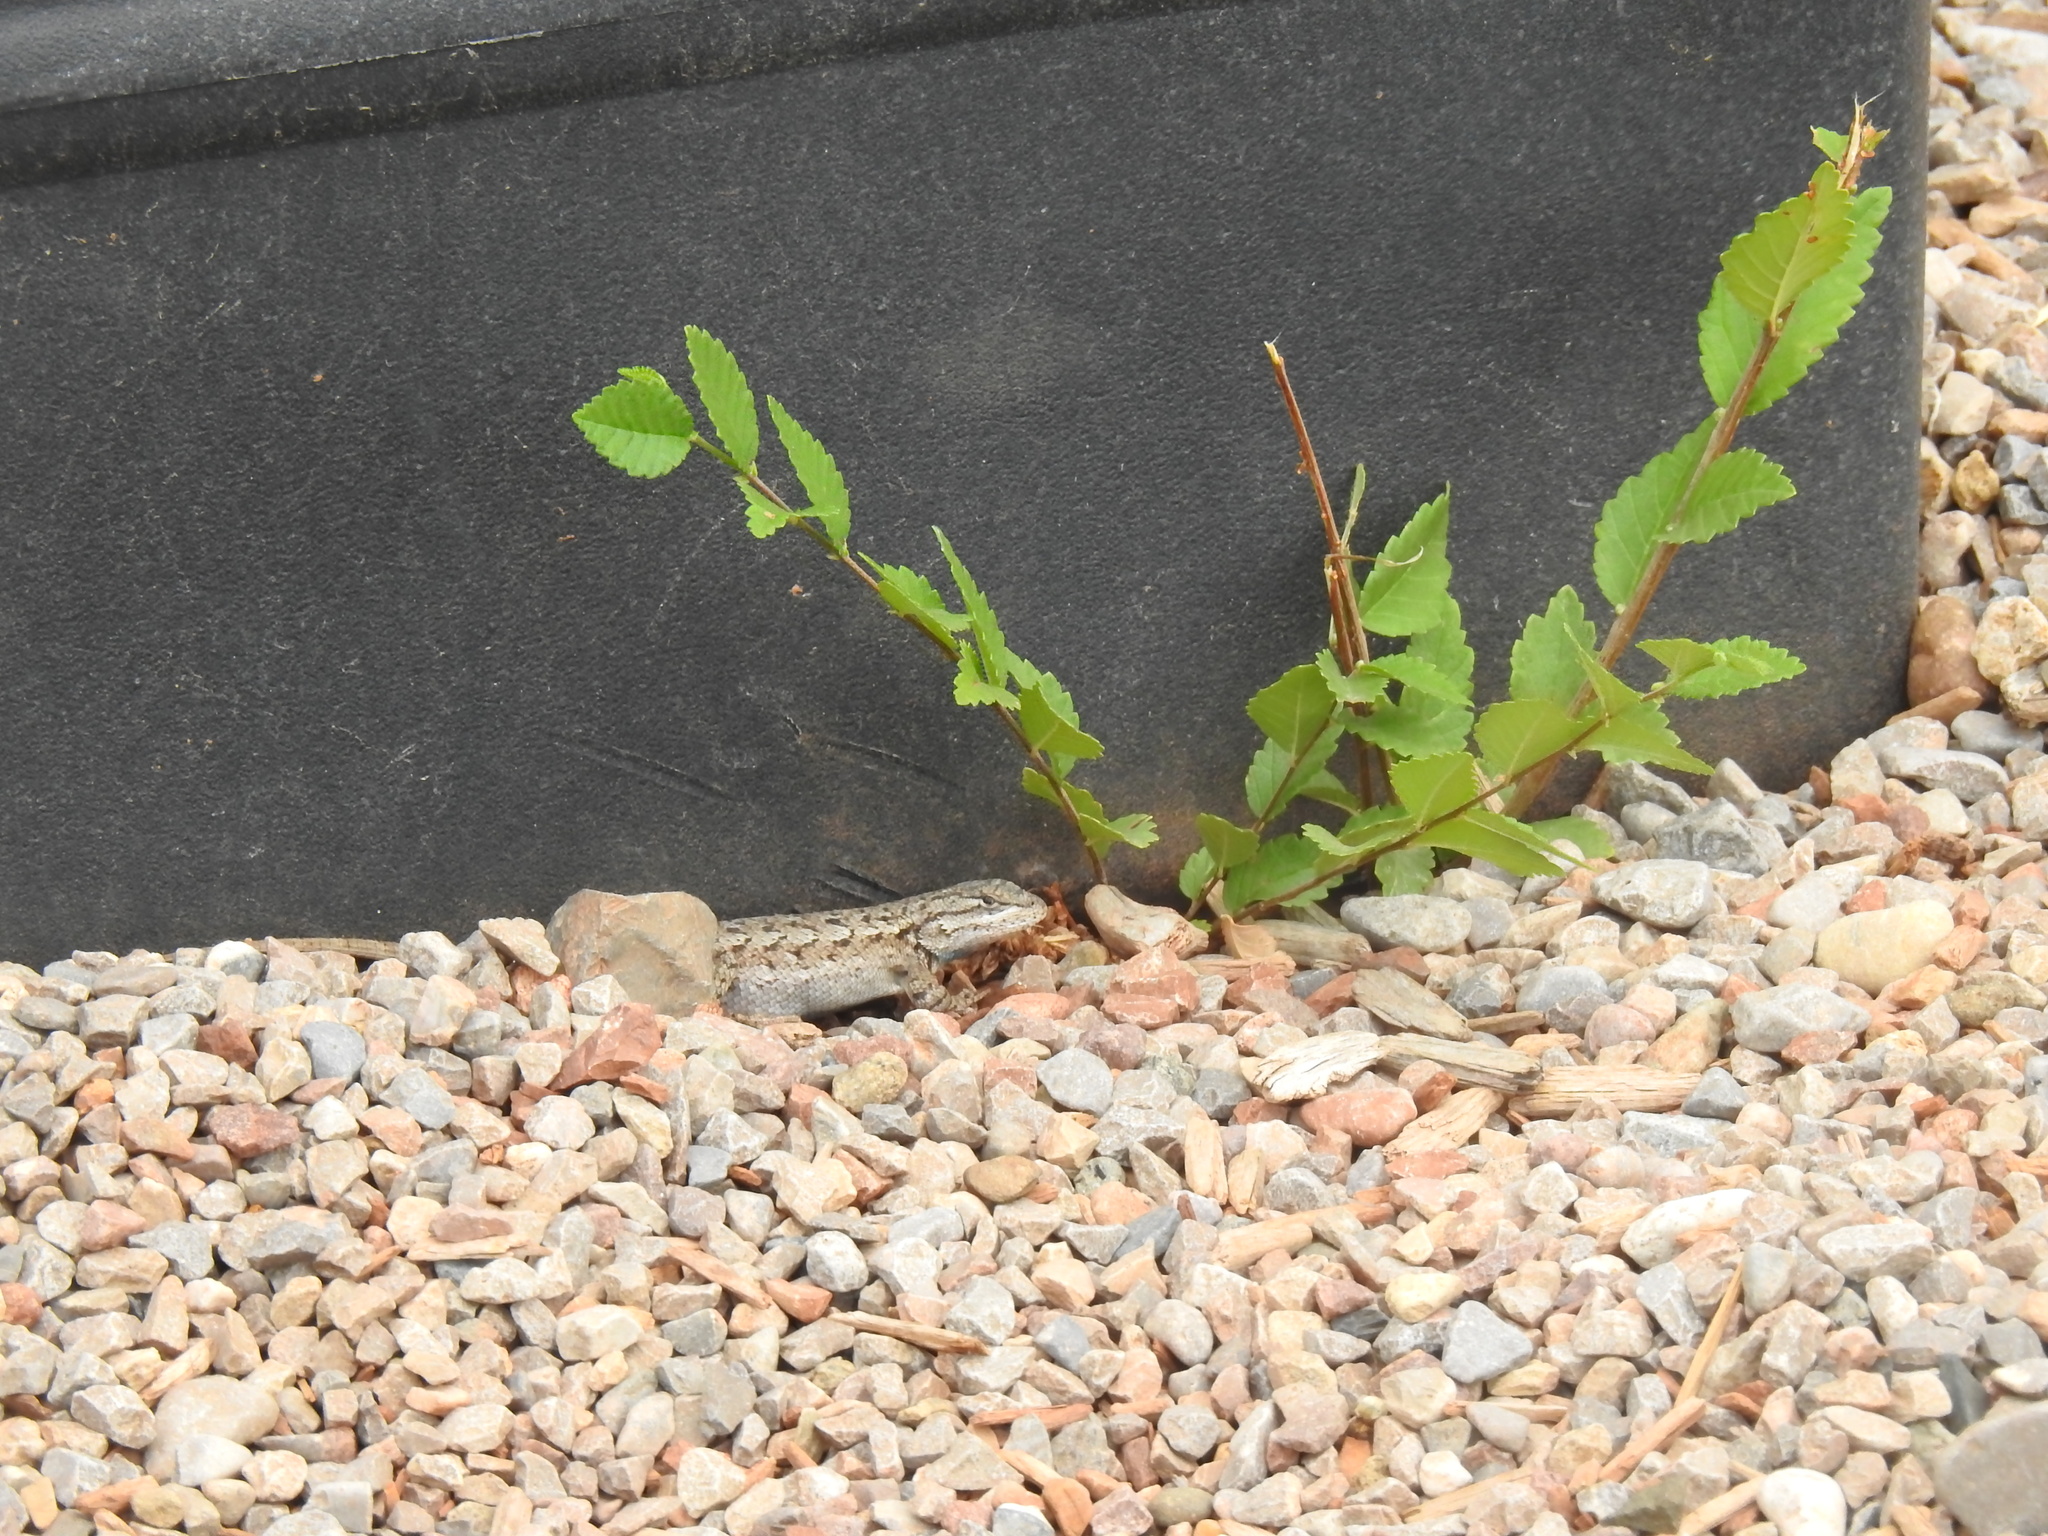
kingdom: Animalia
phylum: Chordata
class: Squamata
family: Phrynosomatidae
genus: Sceloporus
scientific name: Sceloporus cowlesi
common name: White sands prairie lizard
